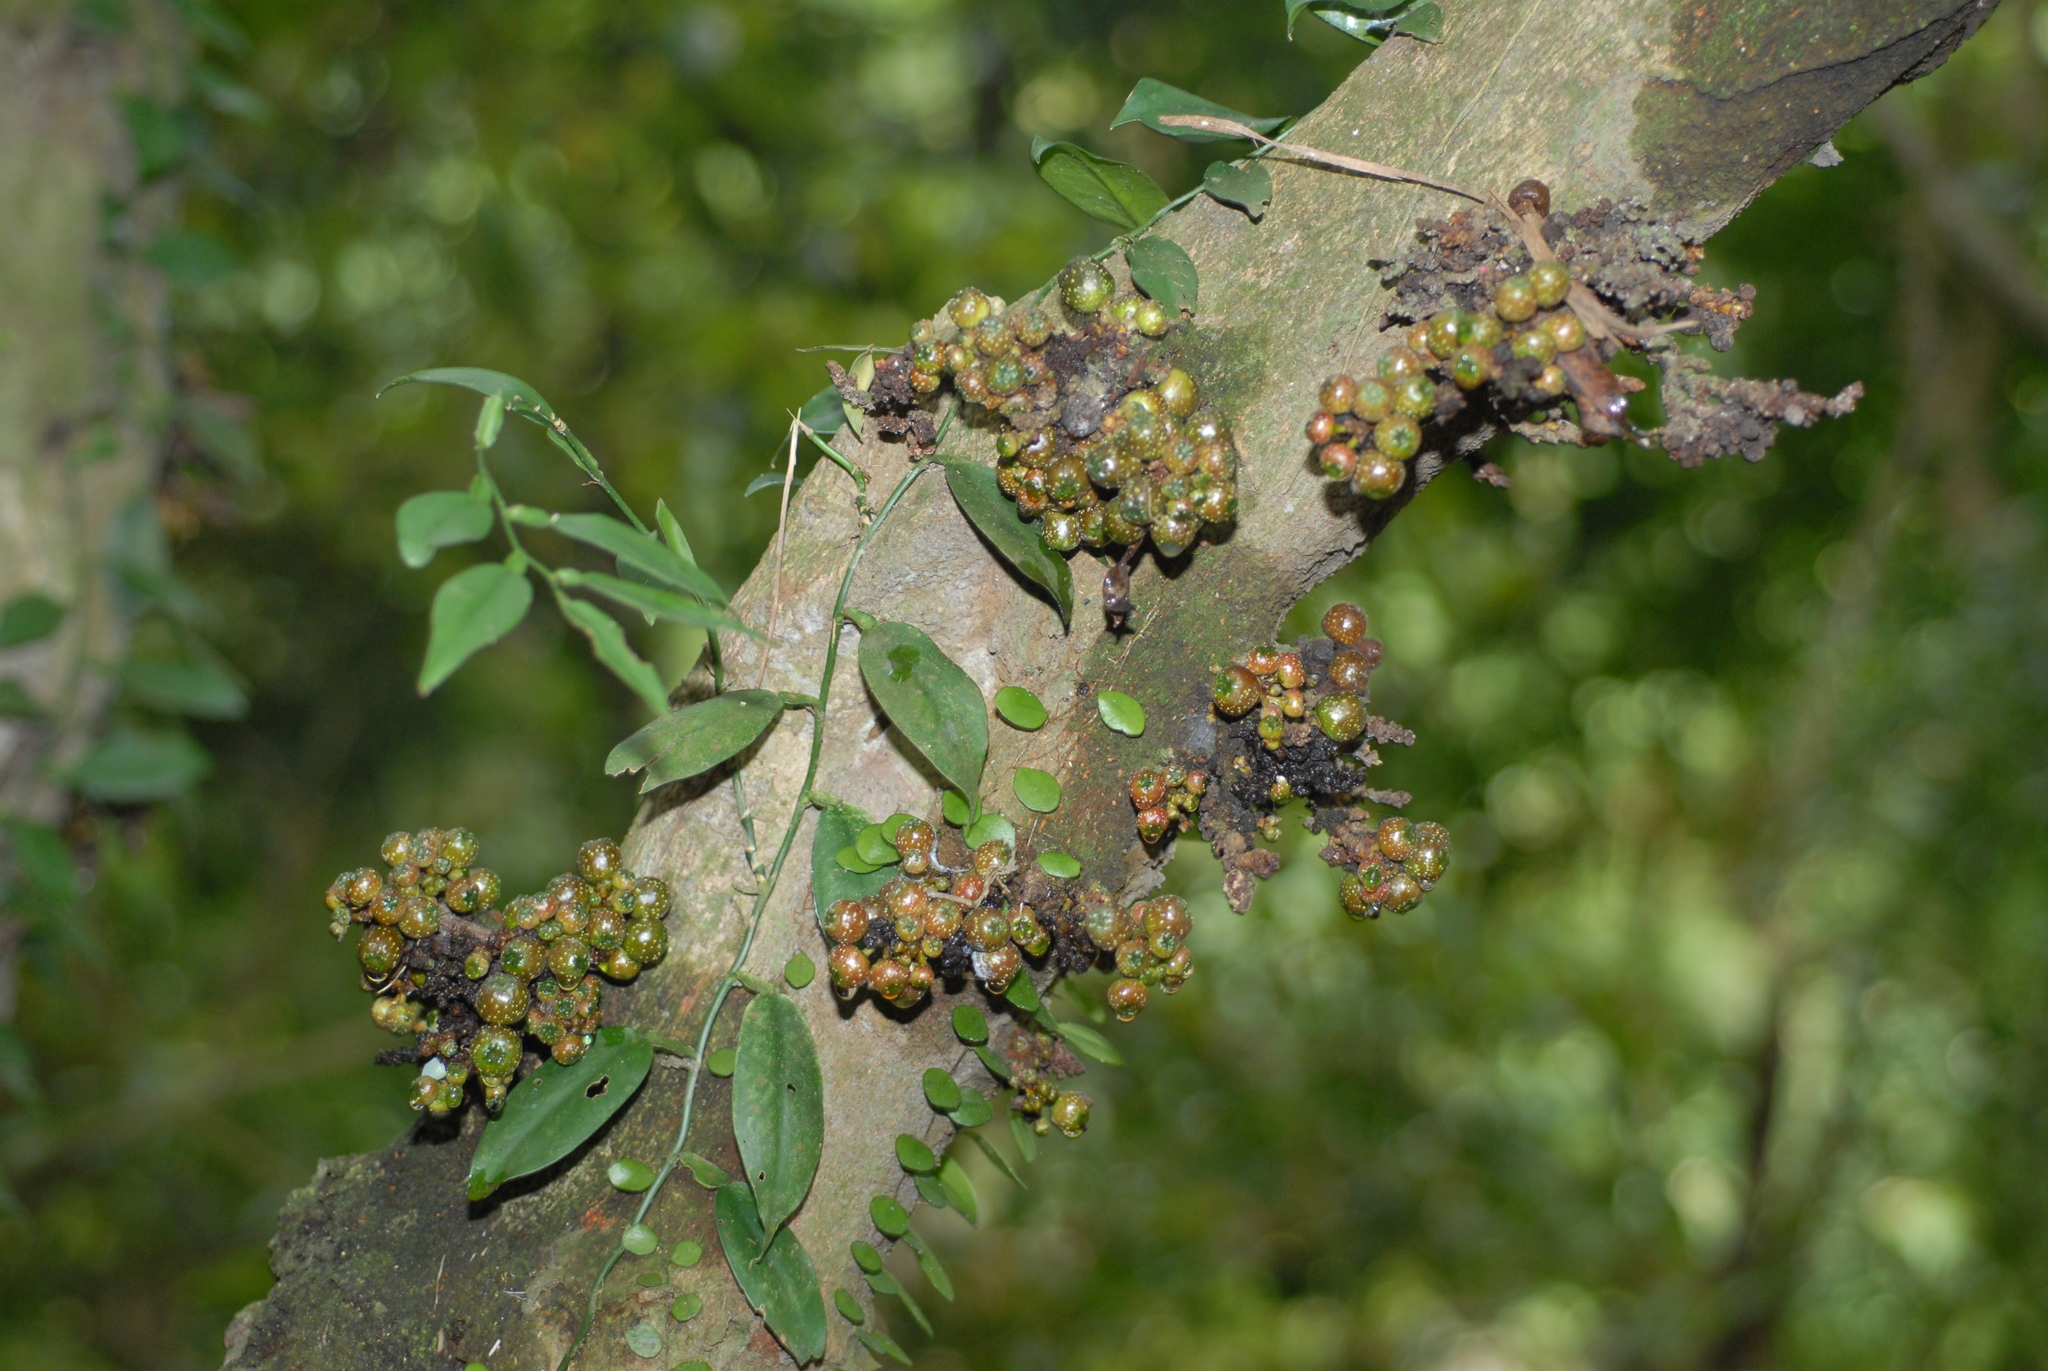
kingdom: Plantae
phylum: Tracheophyta
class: Liliopsida
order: Alismatales
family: Araceae
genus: Pothos
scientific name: Pothos chinensis
